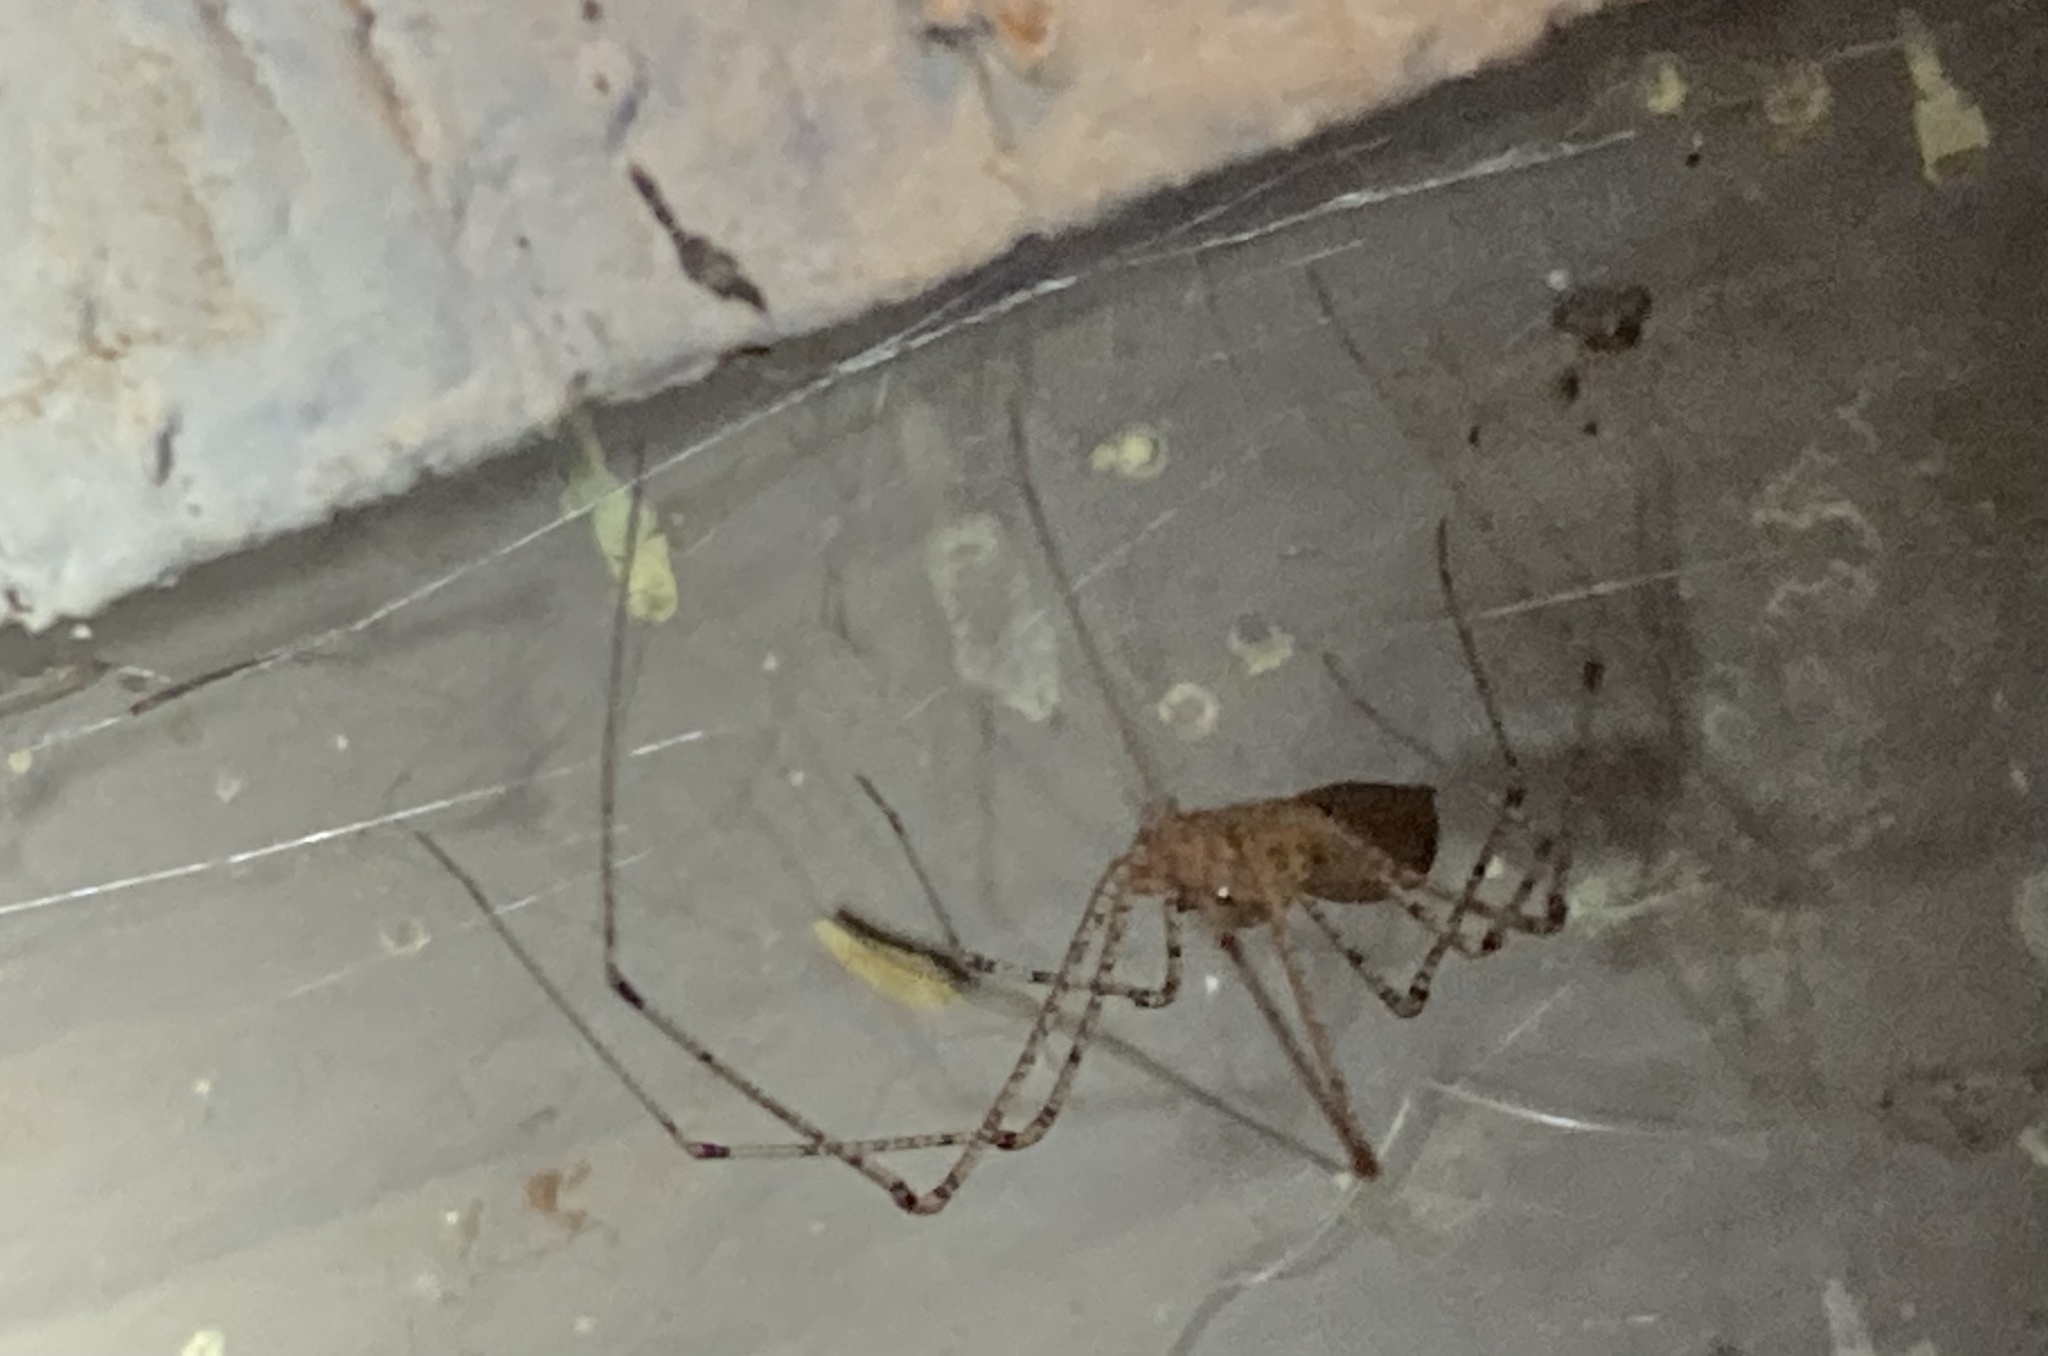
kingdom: Animalia
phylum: Arthropoda
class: Arachnida
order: Araneae
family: Scytodidae
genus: Scytodes
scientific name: Scytodes atlacoya
